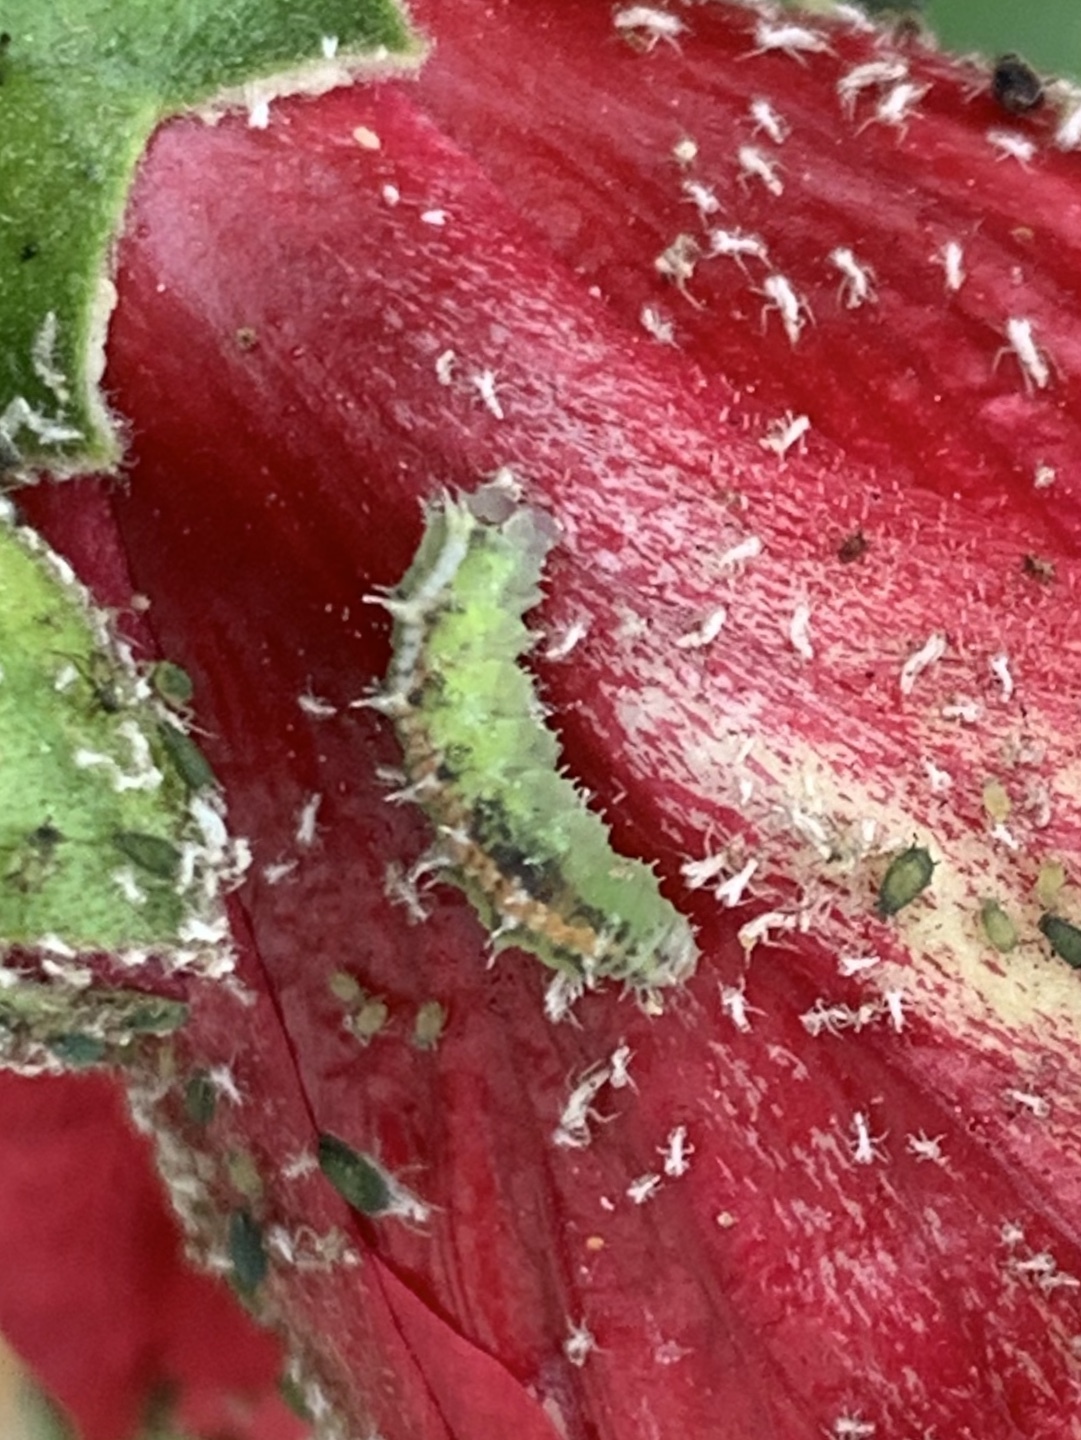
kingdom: Animalia
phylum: Arthropoda
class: Insecta
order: Diptera
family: Syrphidae
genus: Dioprosopa
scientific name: Dioprosopa clavatus
